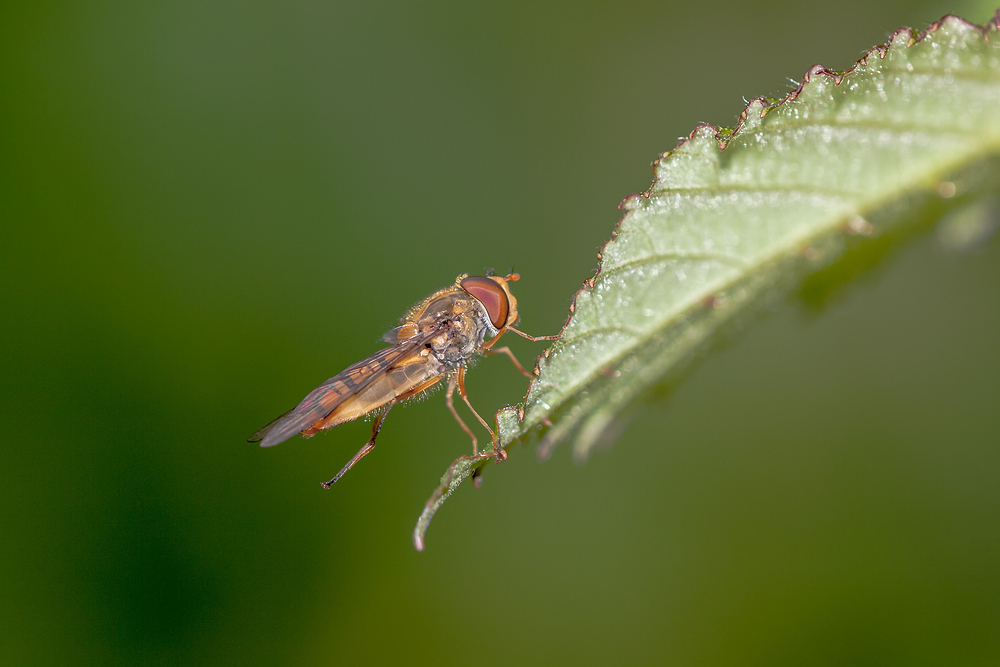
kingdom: Animalia
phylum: Arthropoda
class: Insecta
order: Diptera
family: Syrphidae
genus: Episyrphus
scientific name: Episyrphus balteatus
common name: Marmalade hoverfly
